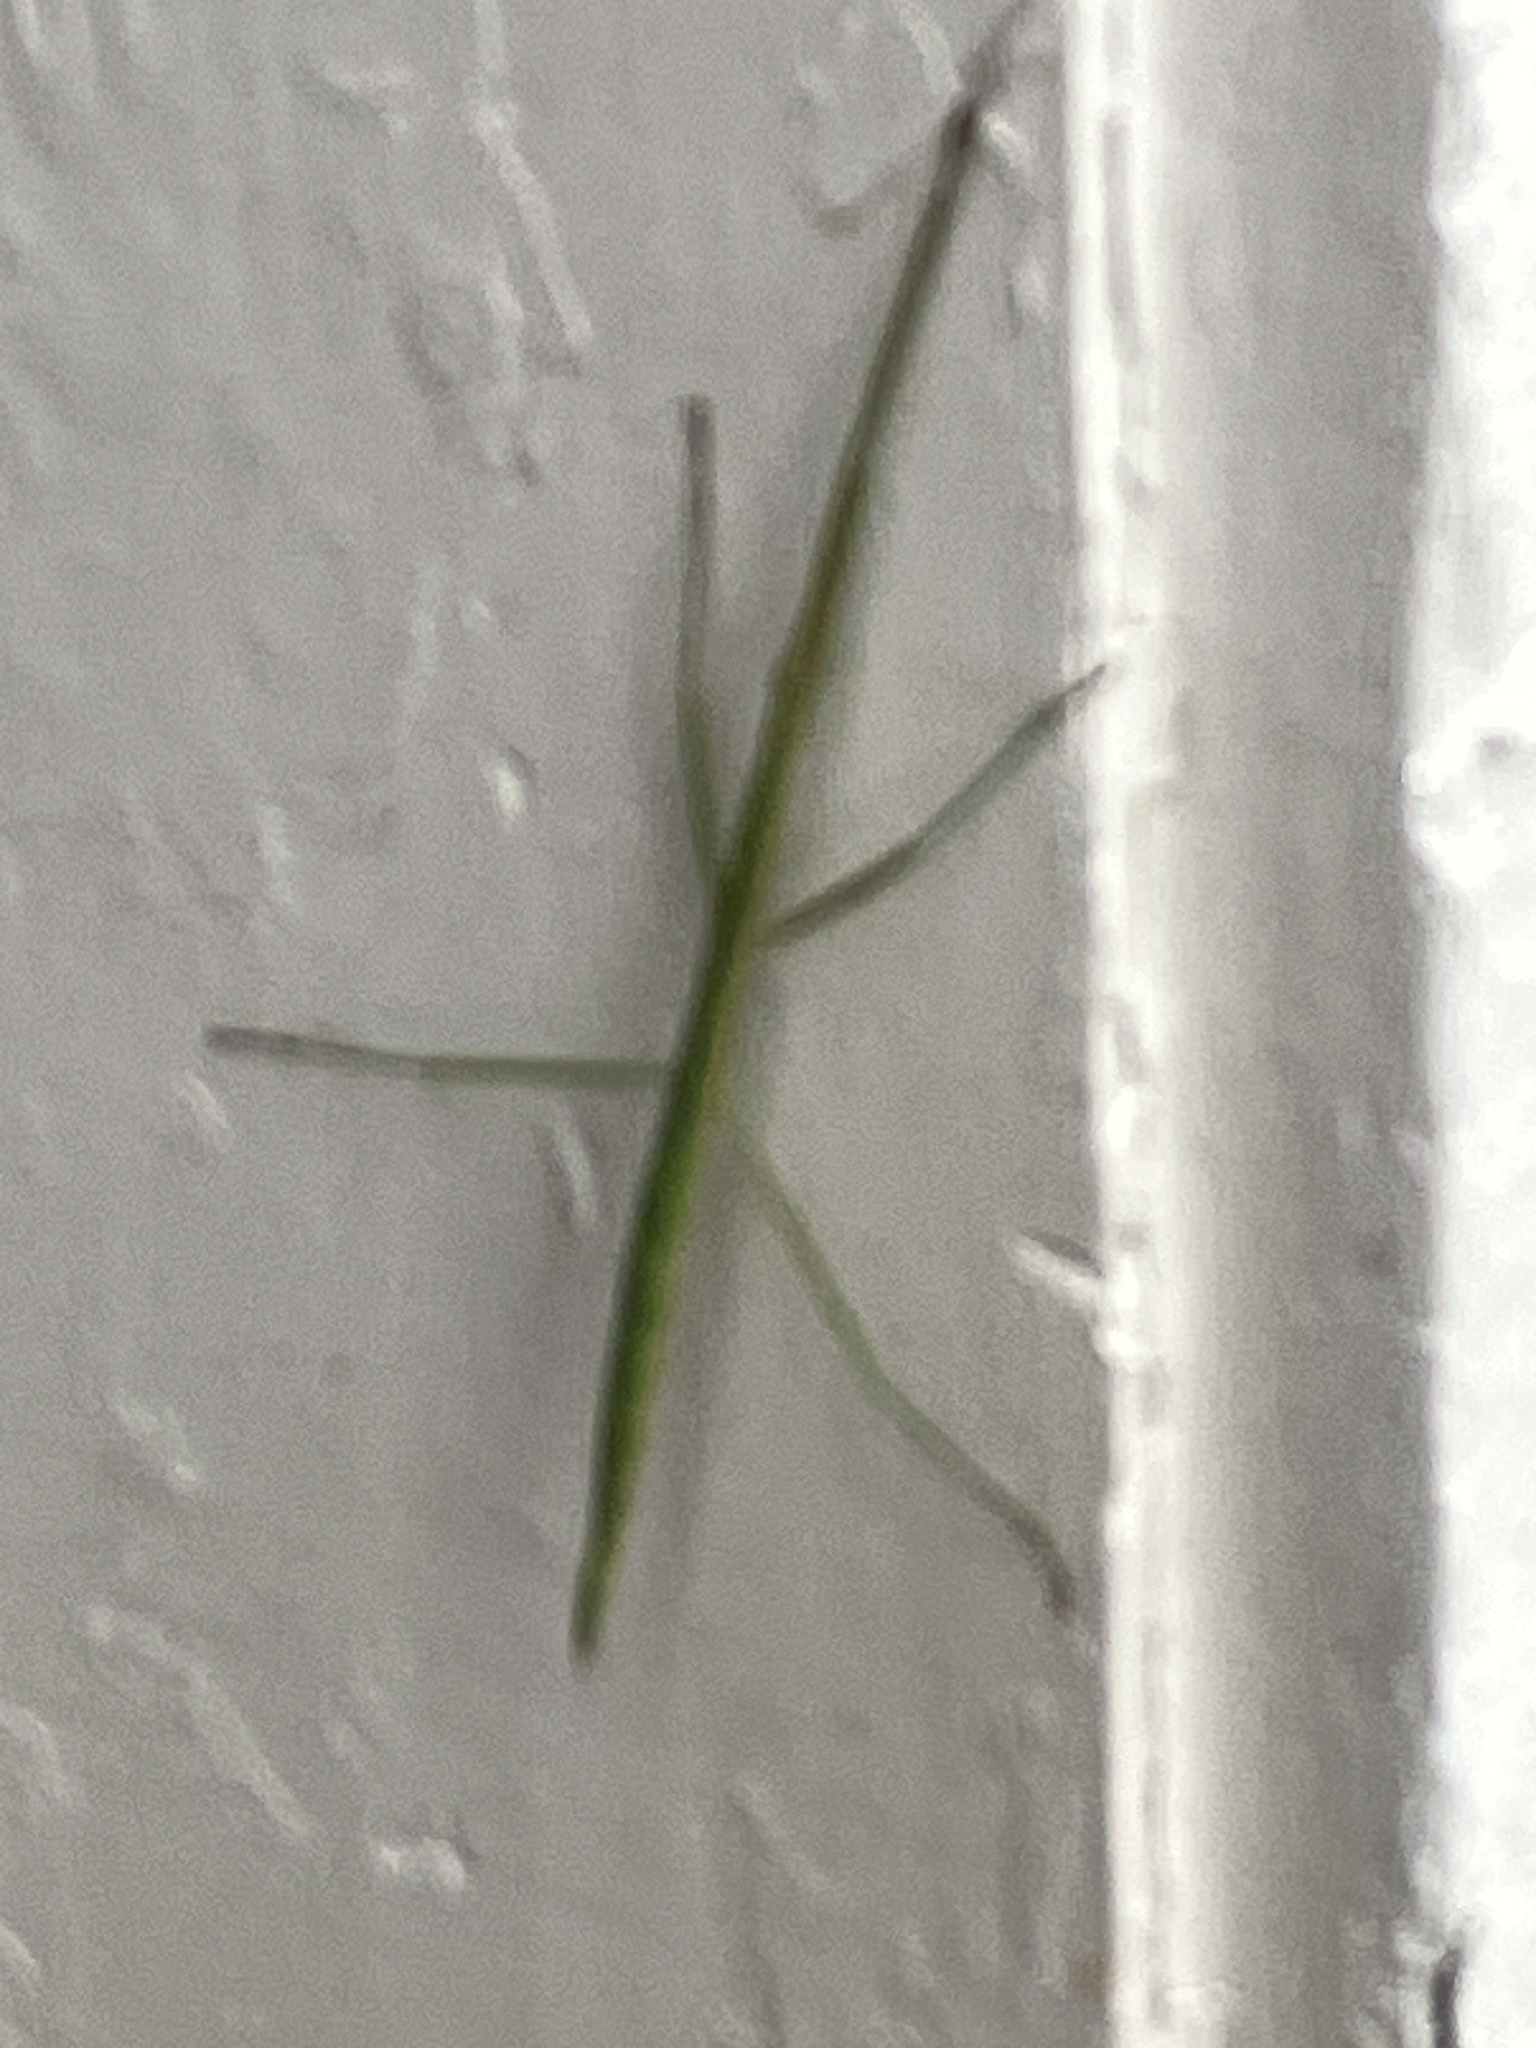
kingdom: Animalia
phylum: Arthropoda
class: Insecta
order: Phasmida
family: Diapheromeridae
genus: Manomera
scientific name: Manomera blatchleyi
